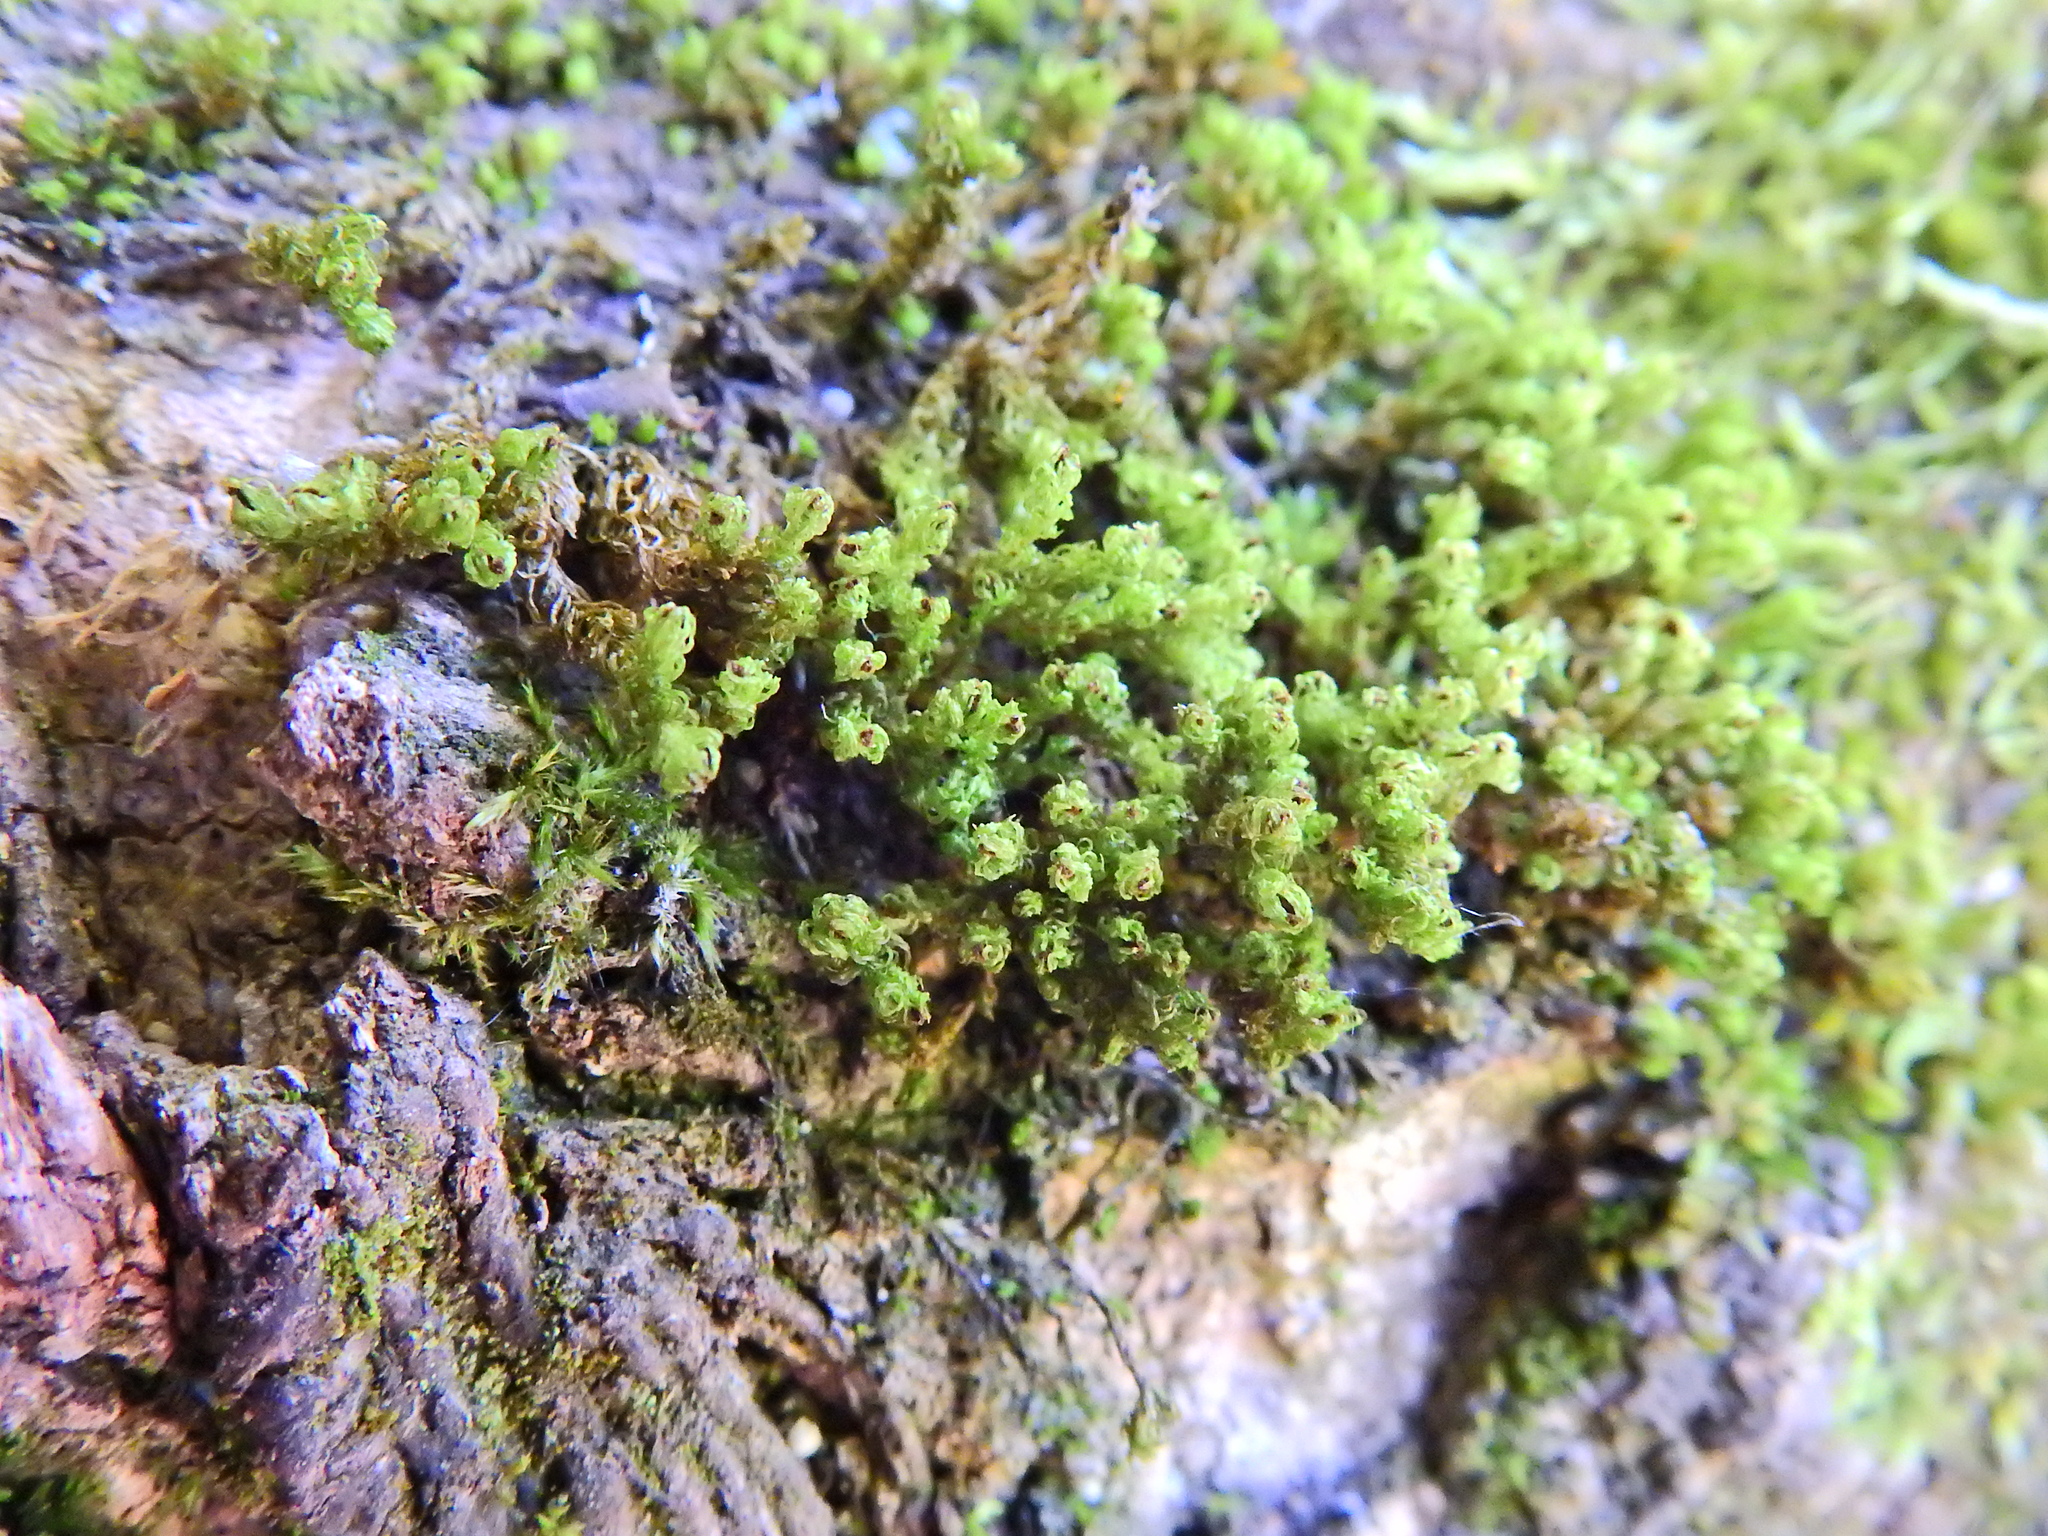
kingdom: Plantae
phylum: Bryophyta
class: Bryopsida
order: Orthotrichales
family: Orthotrichaceae
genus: Plenogemma
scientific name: Plenogemma phyllantha
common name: Frizzled pincushion
